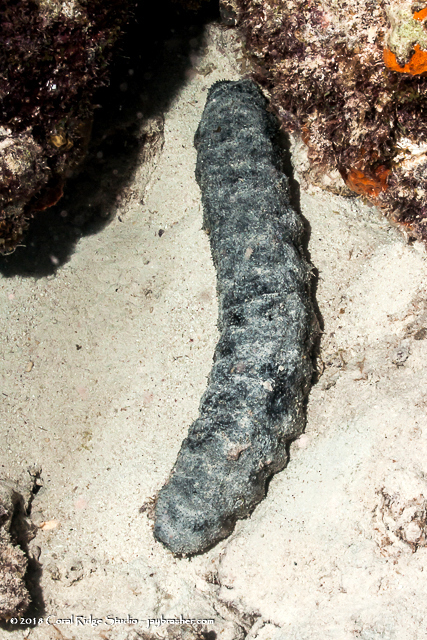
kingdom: Animalia
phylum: Echinodermata
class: Holothuroidea
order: Holothuriida
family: Holothuriidae
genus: Holothuria
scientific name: Holothuria mexicana
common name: Donkey dung sea cucumber
